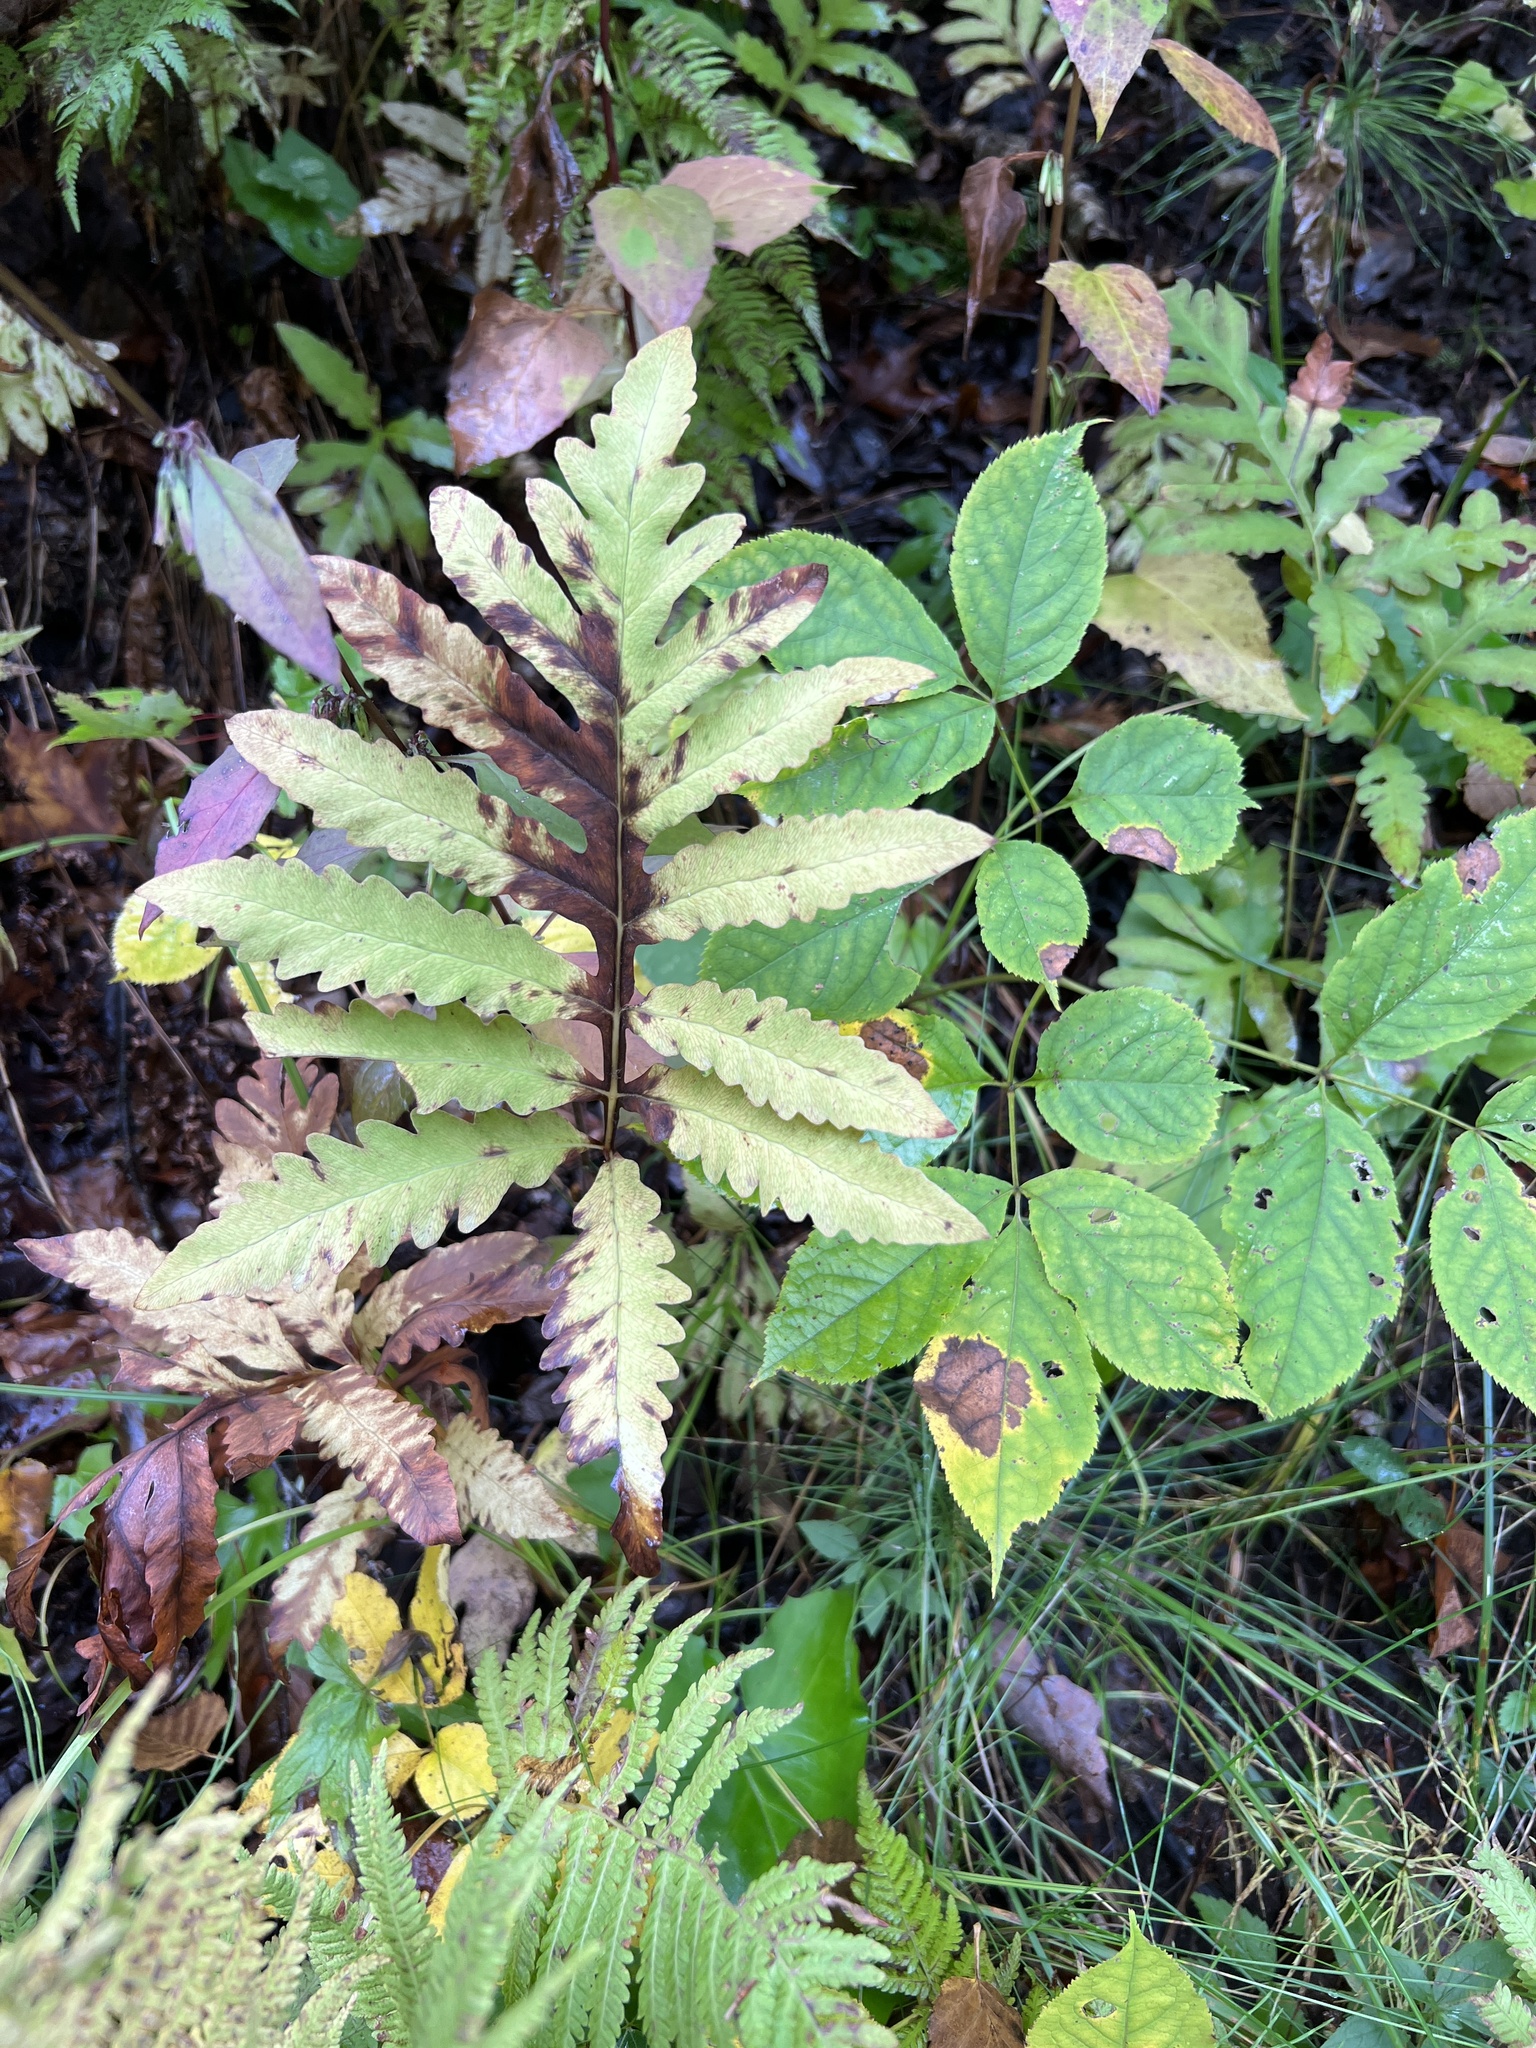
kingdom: Plantae
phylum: Tracheophyta
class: Polypodiopsida
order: Polypodiales
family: Onocleaceae
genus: Onoclea
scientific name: Onoclea sensibilis
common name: Sensitive fern
